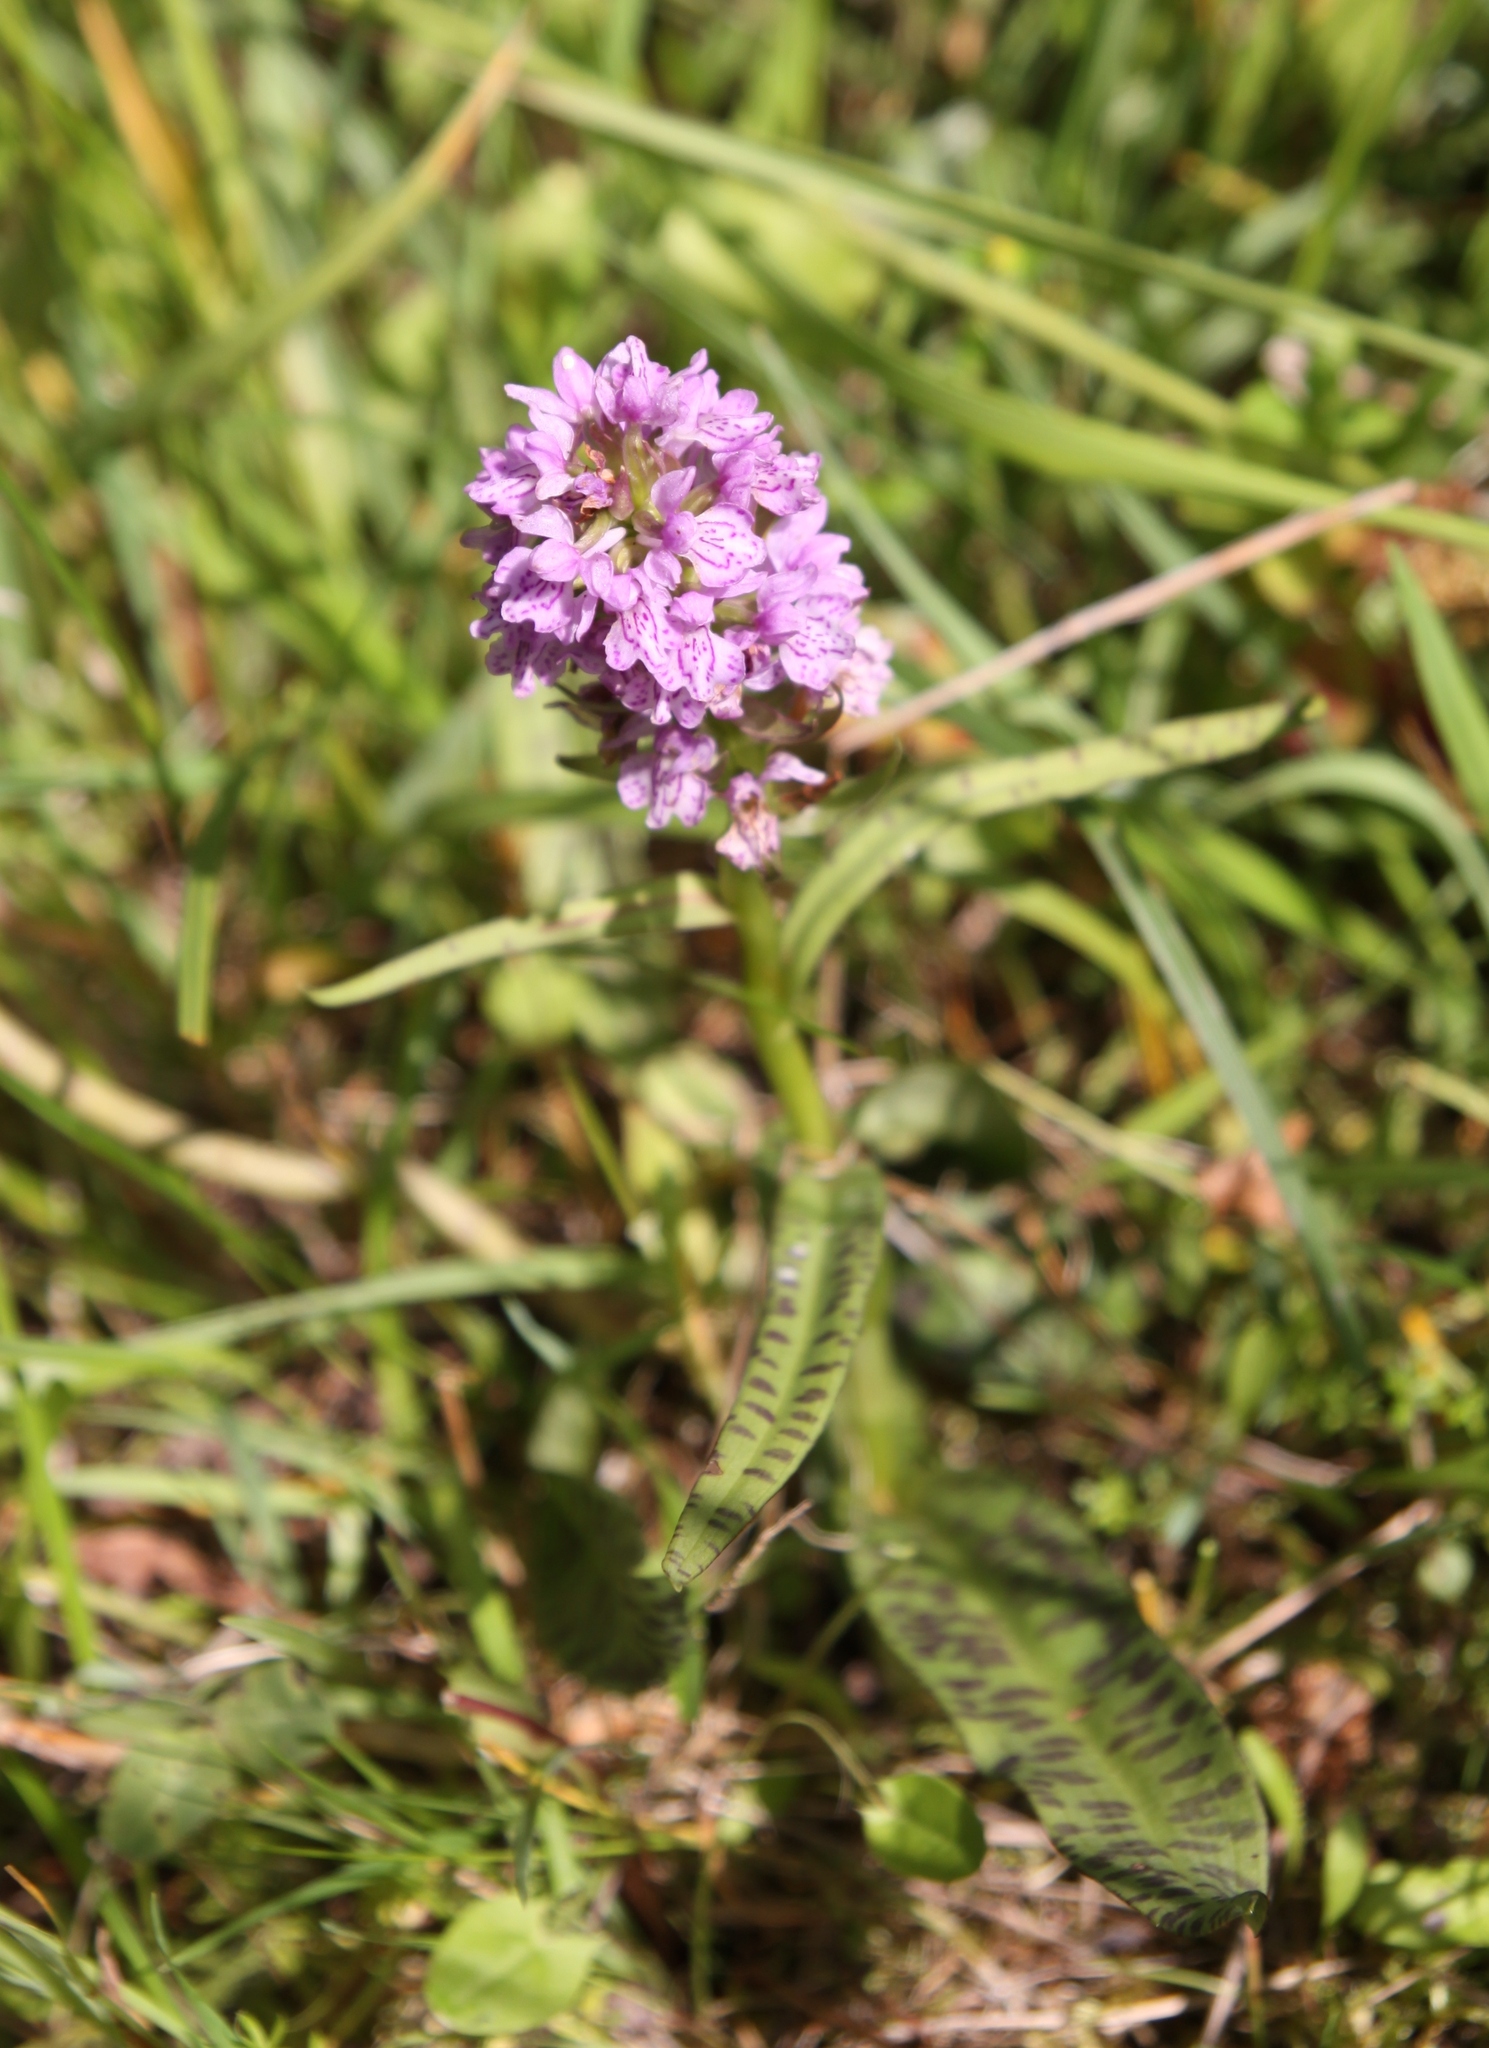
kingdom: Plantae
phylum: Tracheophyta
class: Liliopsida
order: Asparagales
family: Orchidaceae
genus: Dactylorhiza
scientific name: Dactylorhiza majalis
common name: Marsh orchid
